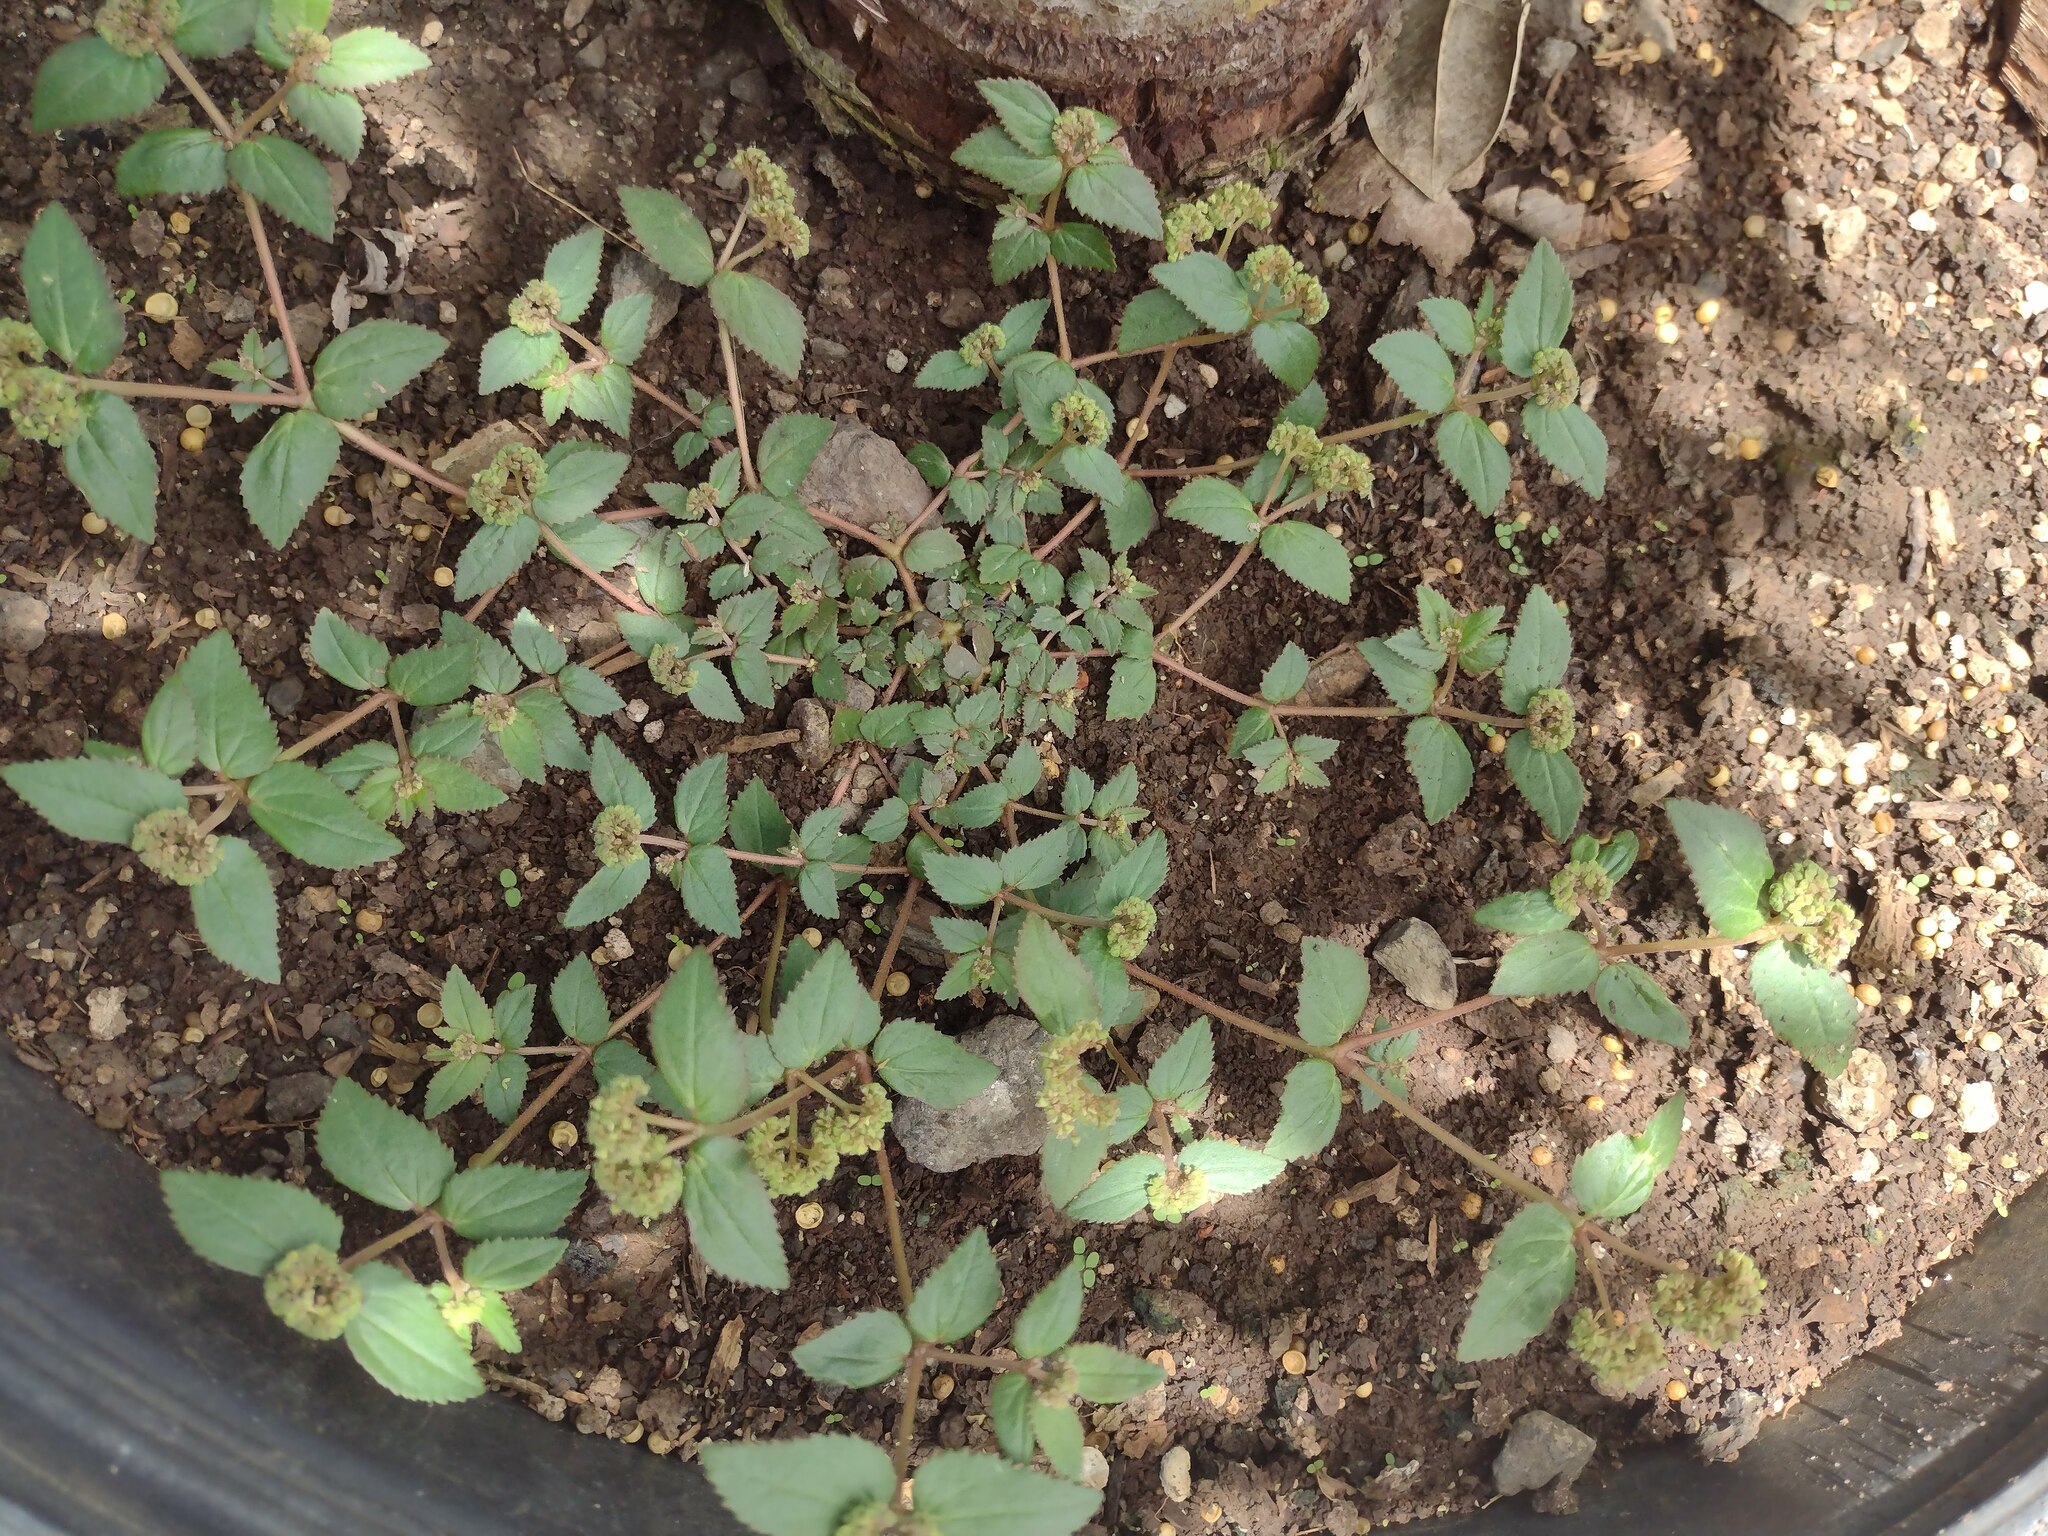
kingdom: Plantae
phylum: Tracheophyta
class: Magnoliopsida
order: Malpighiales
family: Euphorbiaceae
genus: Euphorbia
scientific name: Euphorbia ophthalmica
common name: Florida hammock sandmat
